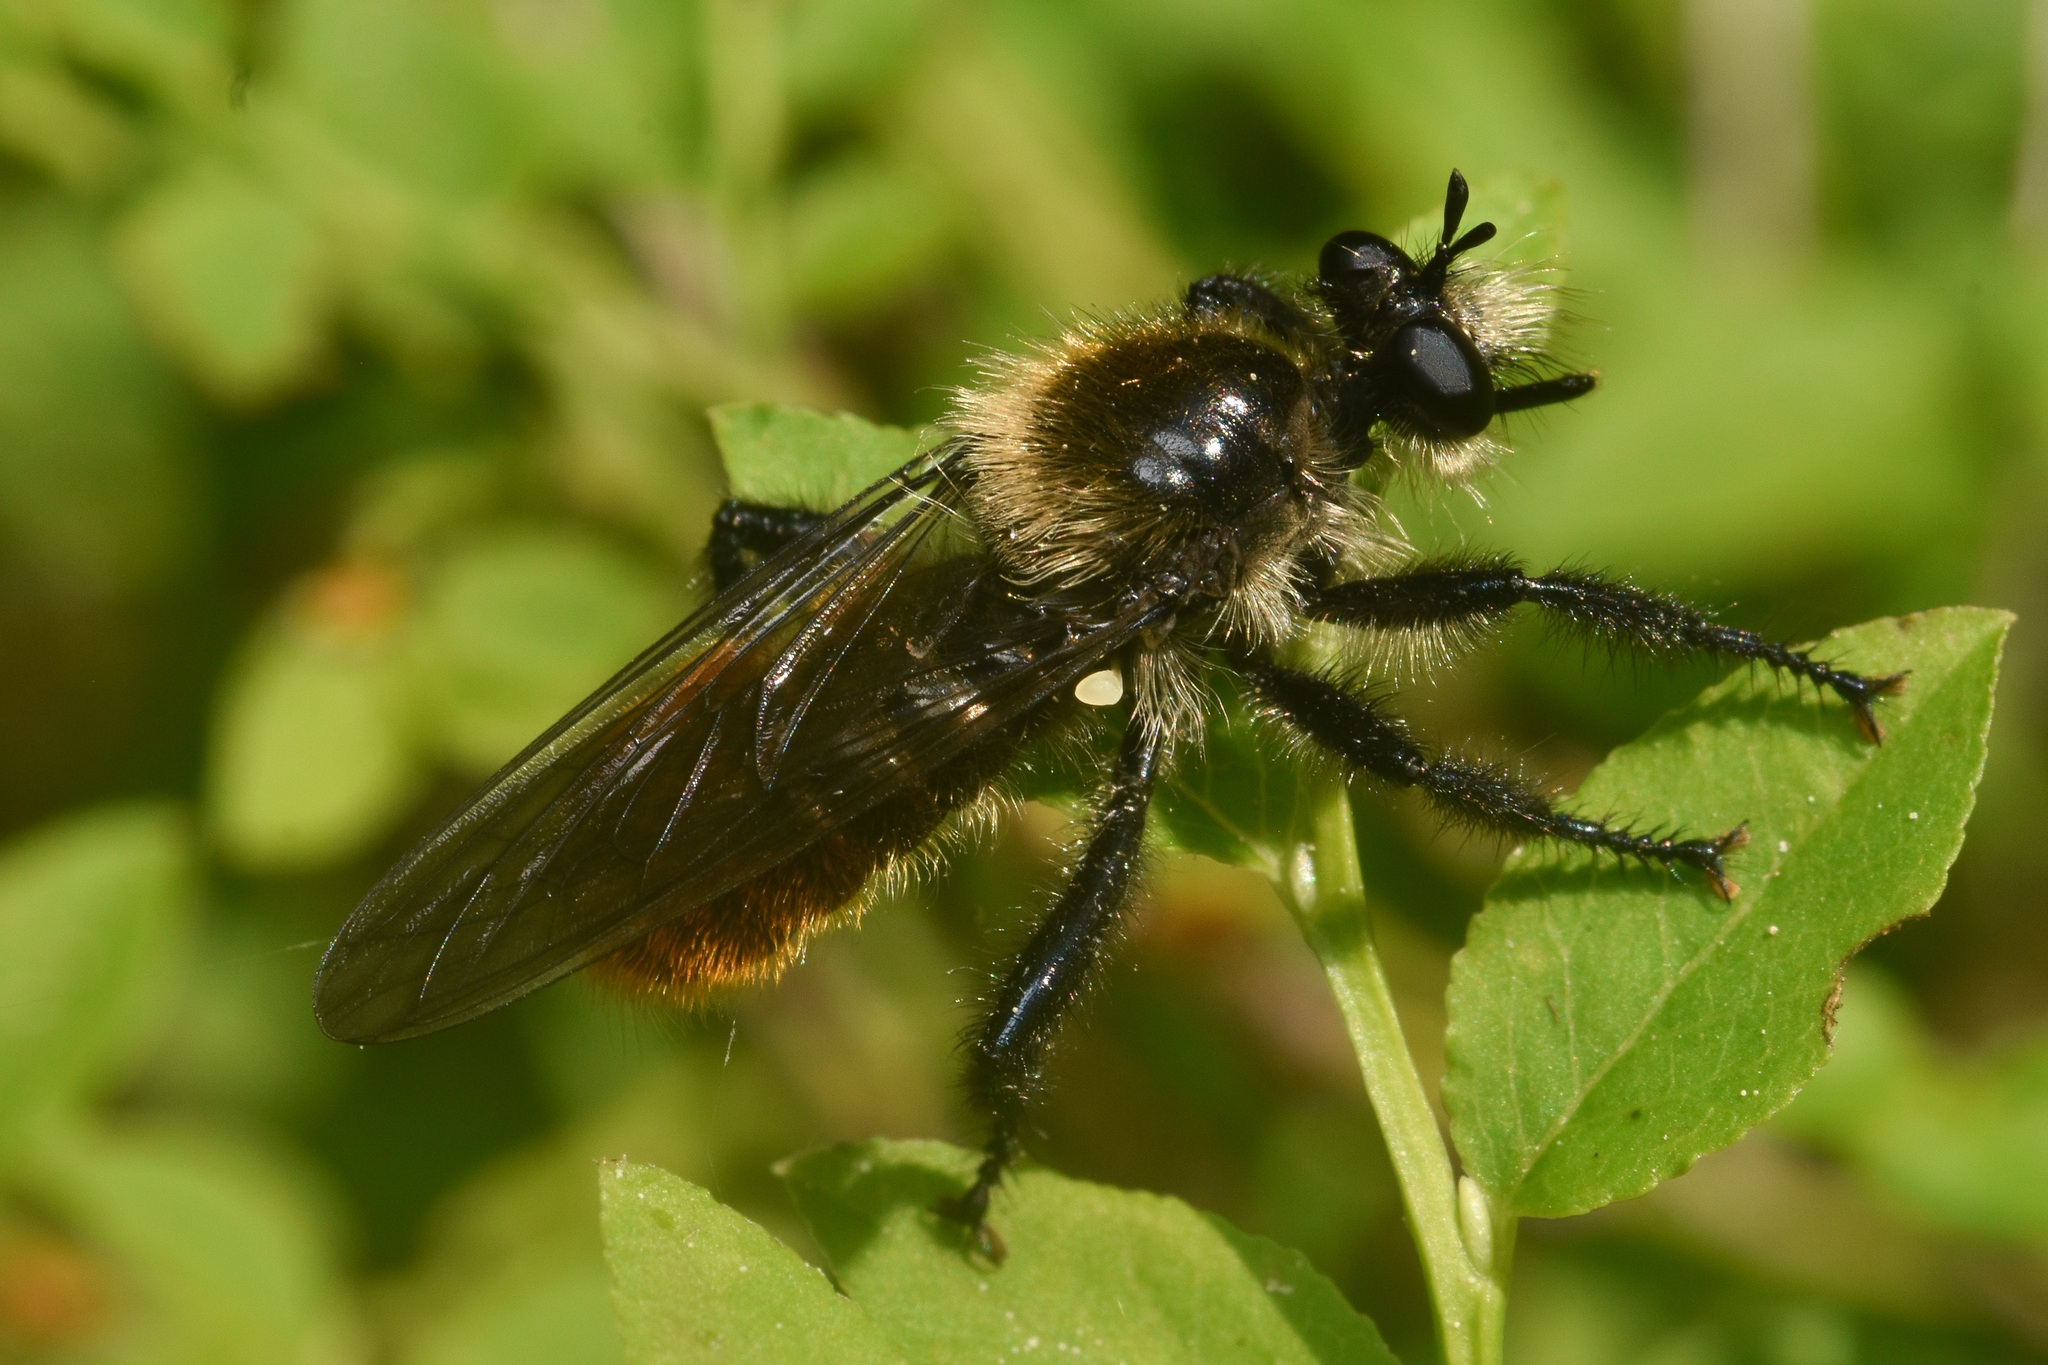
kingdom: Animalia
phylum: Arthropoda
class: Insecta
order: Diptera
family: Asilidae
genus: Laphria
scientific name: Laphria janus
